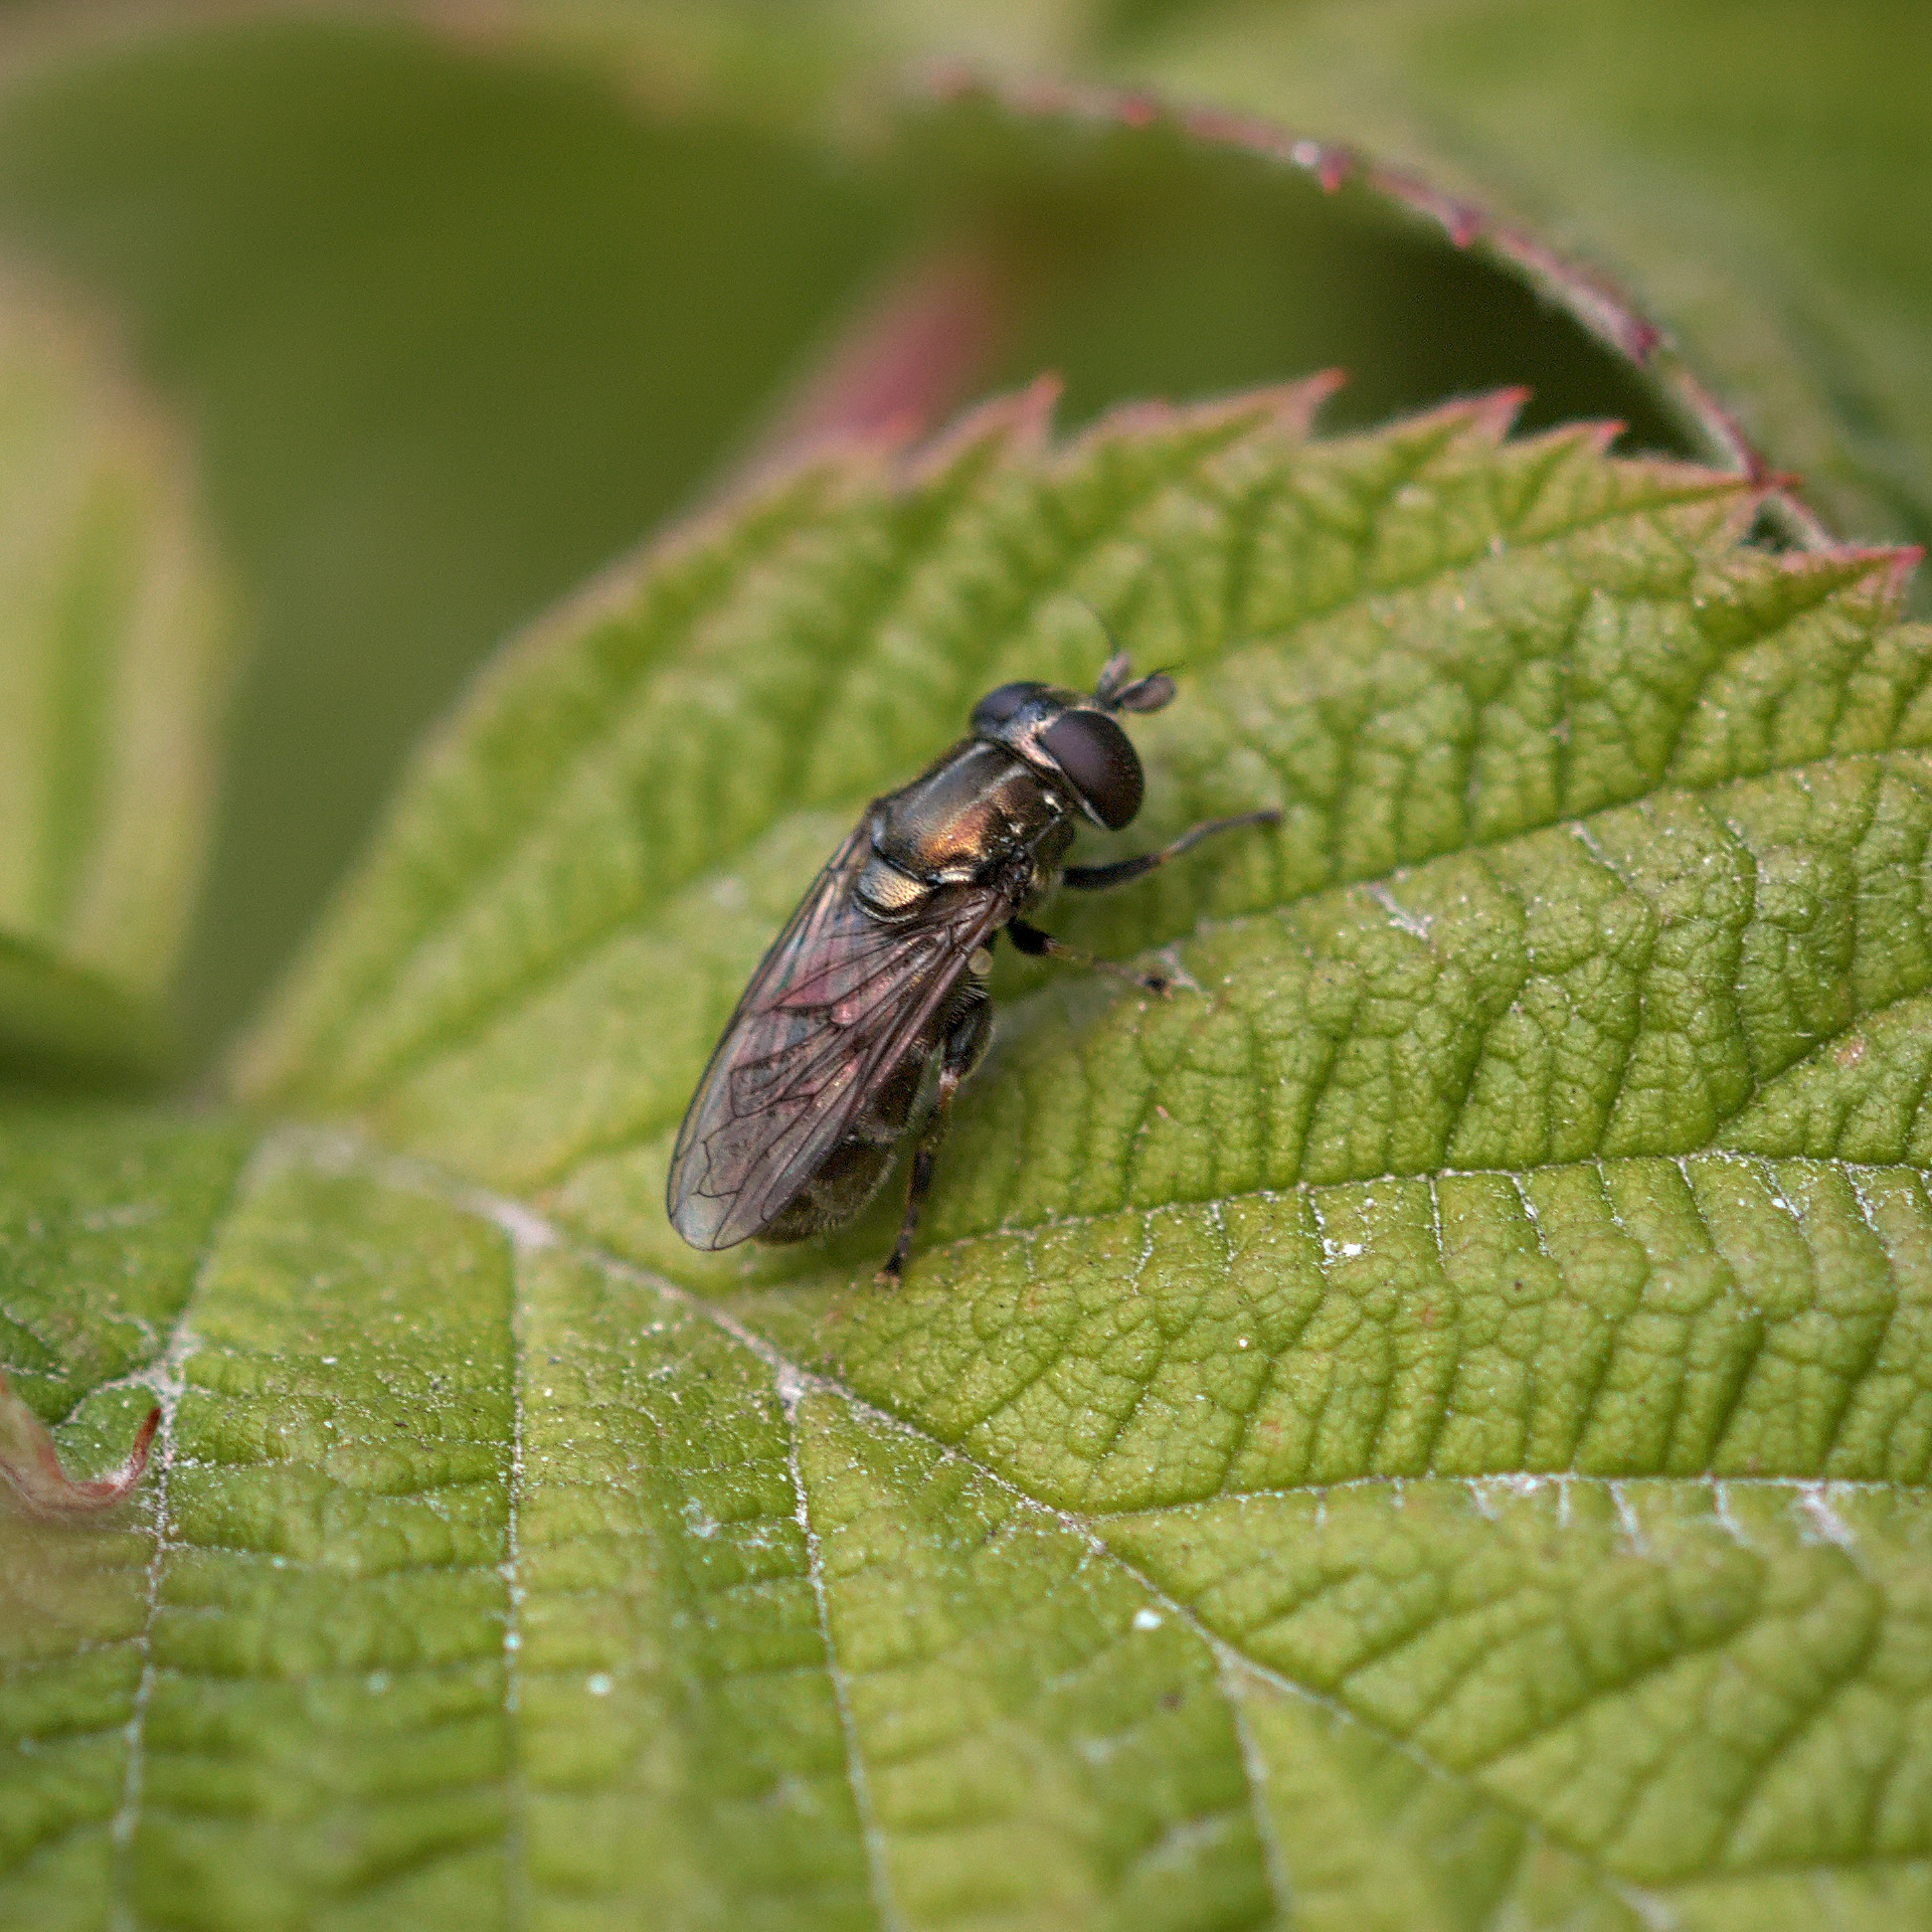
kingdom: Animalia
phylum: Arthropoda
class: Insecta
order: Diptera
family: Syrphidae
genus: Eumerus
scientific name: Eumerus
